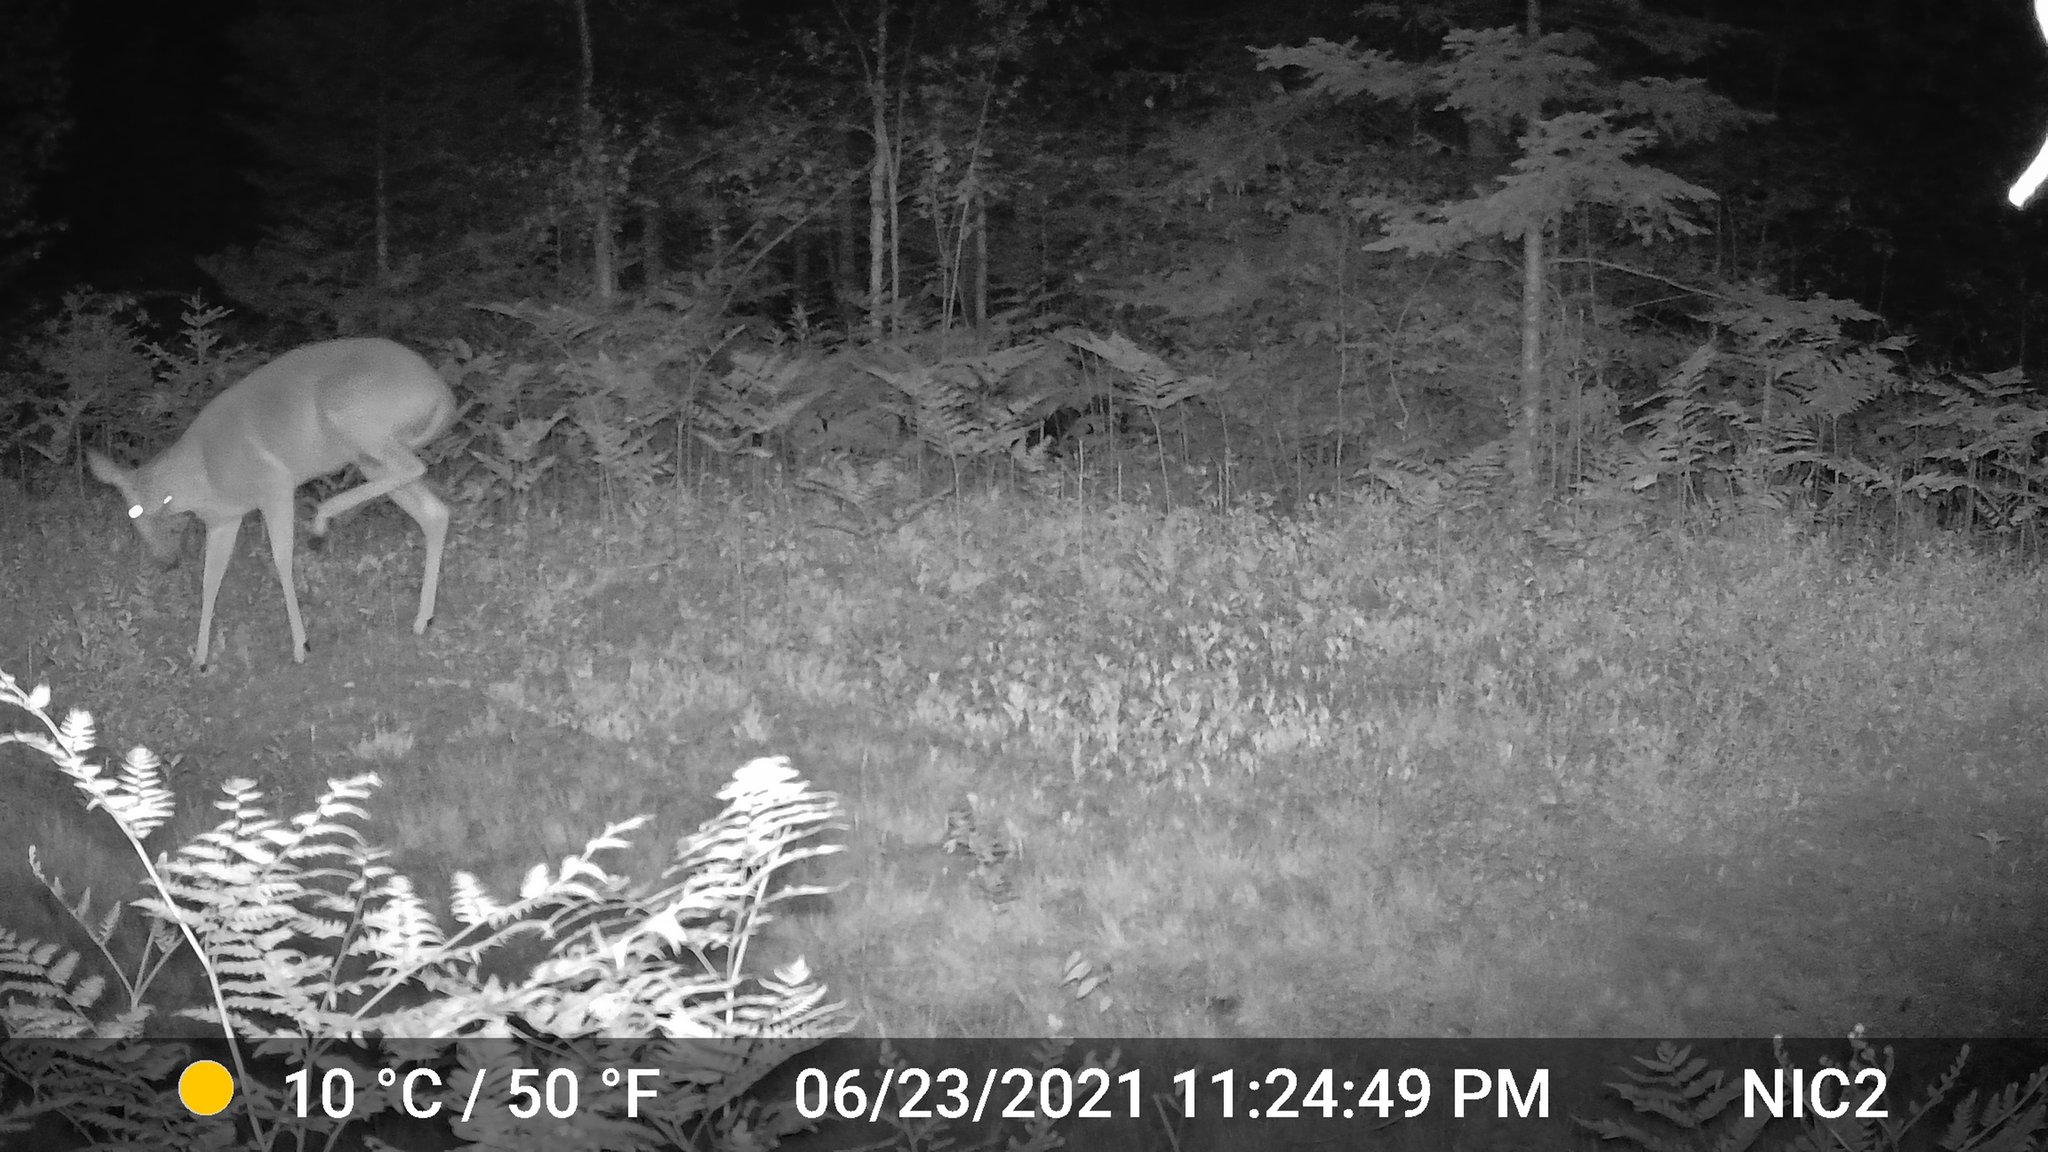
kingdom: Animalia
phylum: Chordata
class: Mammalia
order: Artiodactyla
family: Cervidae
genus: Odocoileus
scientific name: Odocoileus virginianus
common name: White-tailed deer
